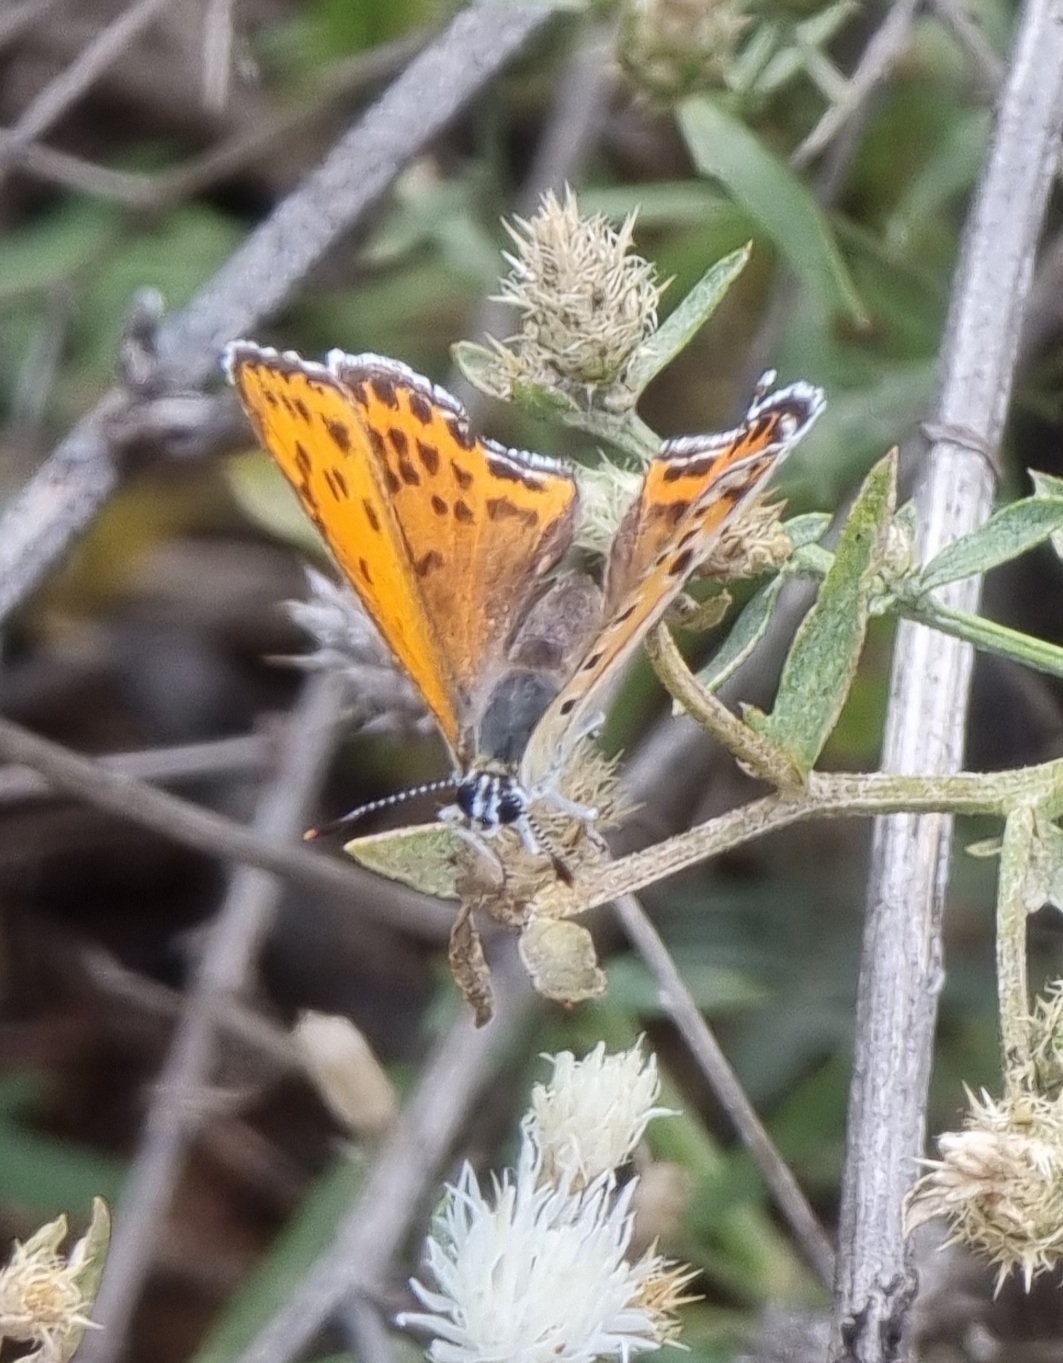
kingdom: Animalia
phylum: Arthropoda
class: Insecta
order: Lepidoptera
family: Lycaenidae
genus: Thersamonia
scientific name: Thersamonia thersamon
